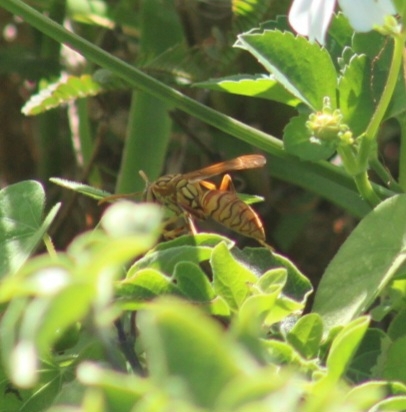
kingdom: Animalia
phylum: Arthropoda
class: Insecta
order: Hymenoptera
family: Eumenidae
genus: Polistes
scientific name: Polistes olivaceus
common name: Paper wasp
